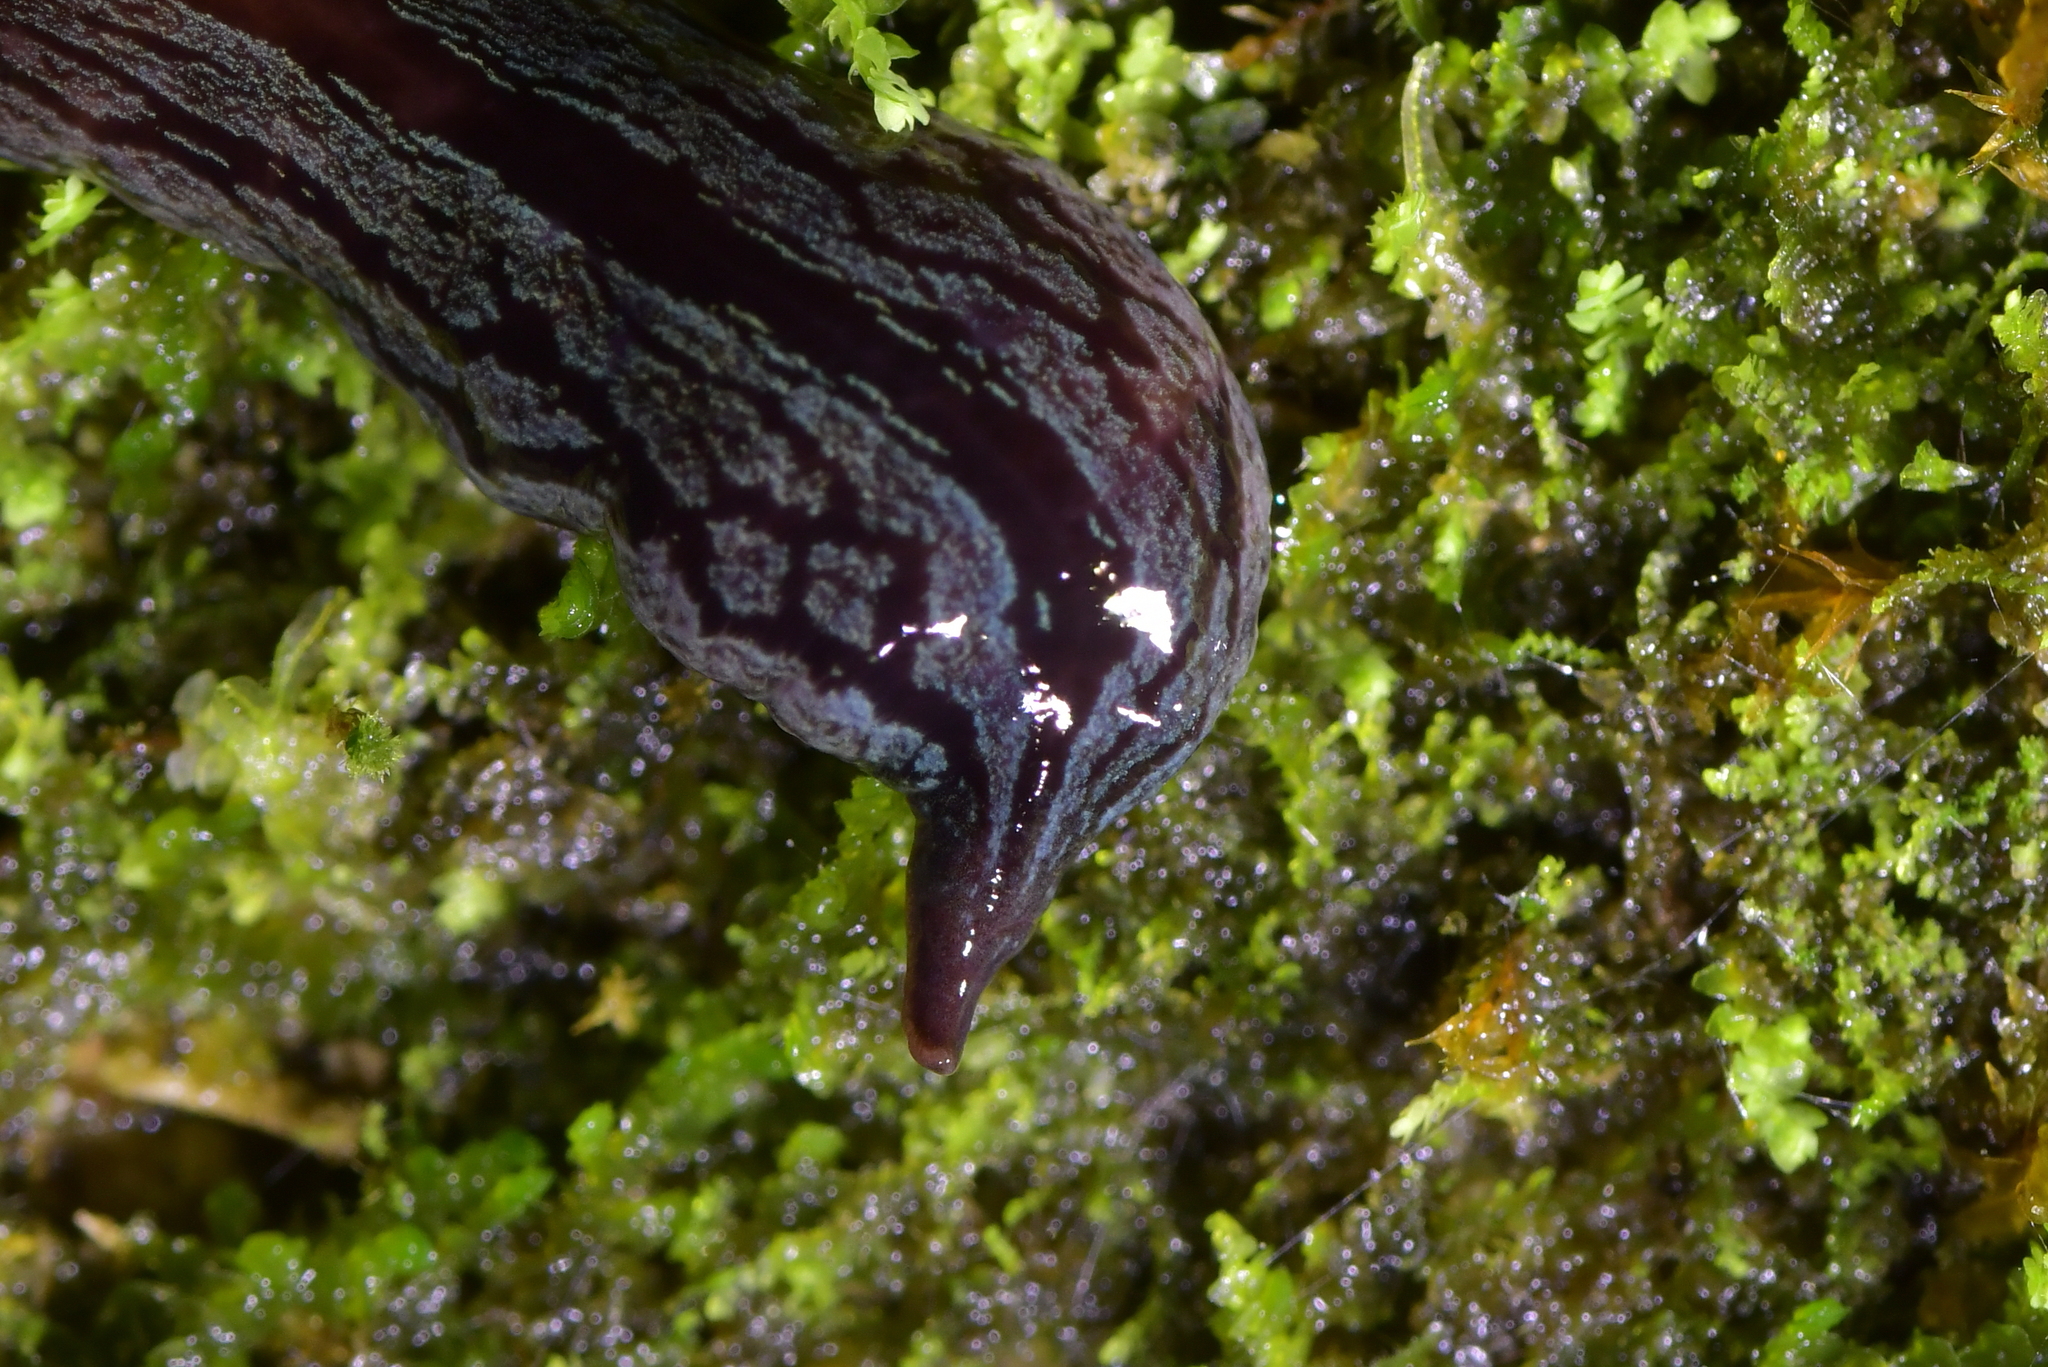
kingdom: Animalia
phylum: Platyhelminthes
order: Tricladida
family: Geoplanidae
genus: Artioposthia
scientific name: Artioposthia exulans
